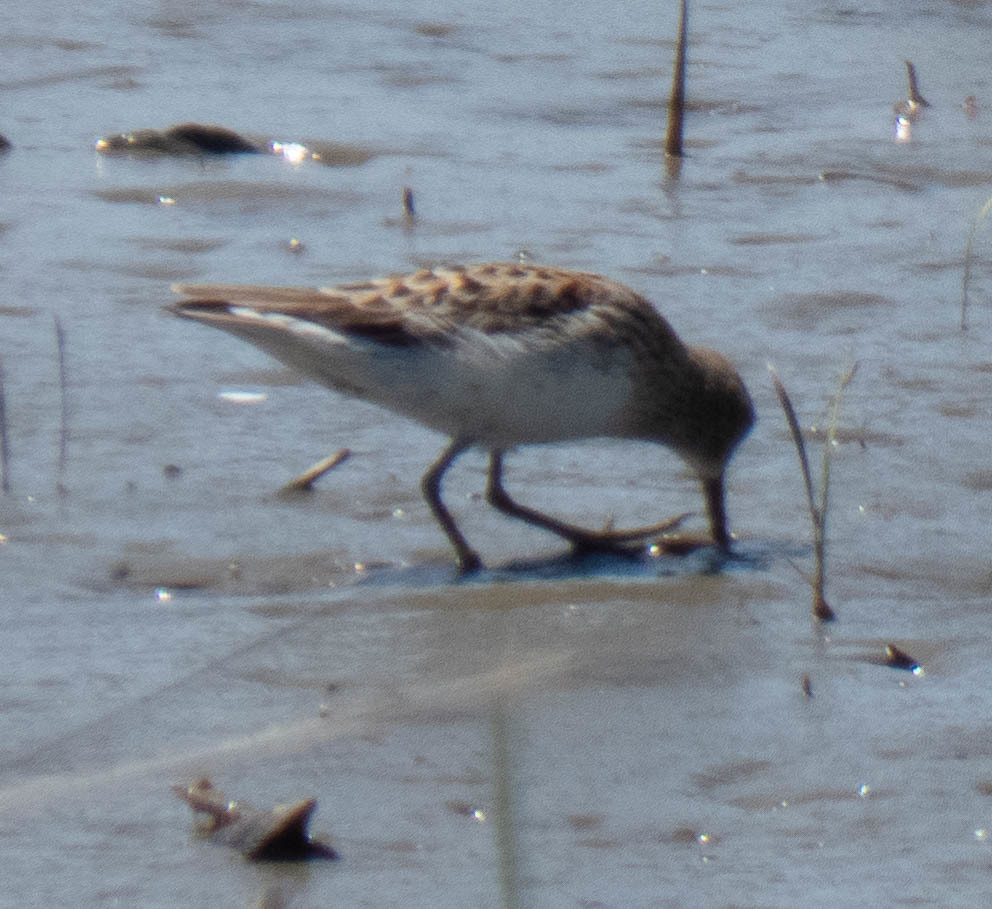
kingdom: Animalia
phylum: Chordata
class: Aves
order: Charadriiformes
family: Scolopacidae
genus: Calidris
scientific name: Calidris minutilla
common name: Least sandpiper
